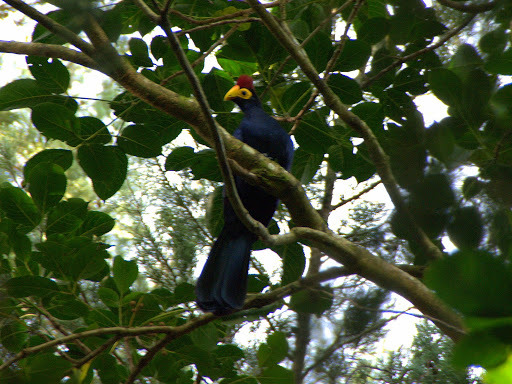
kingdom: Animalia
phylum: Chordata
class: Aves
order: Musophagiformes
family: Musophagidae
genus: Musophaga
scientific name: Musophaga rossae
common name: Ross's turaco
